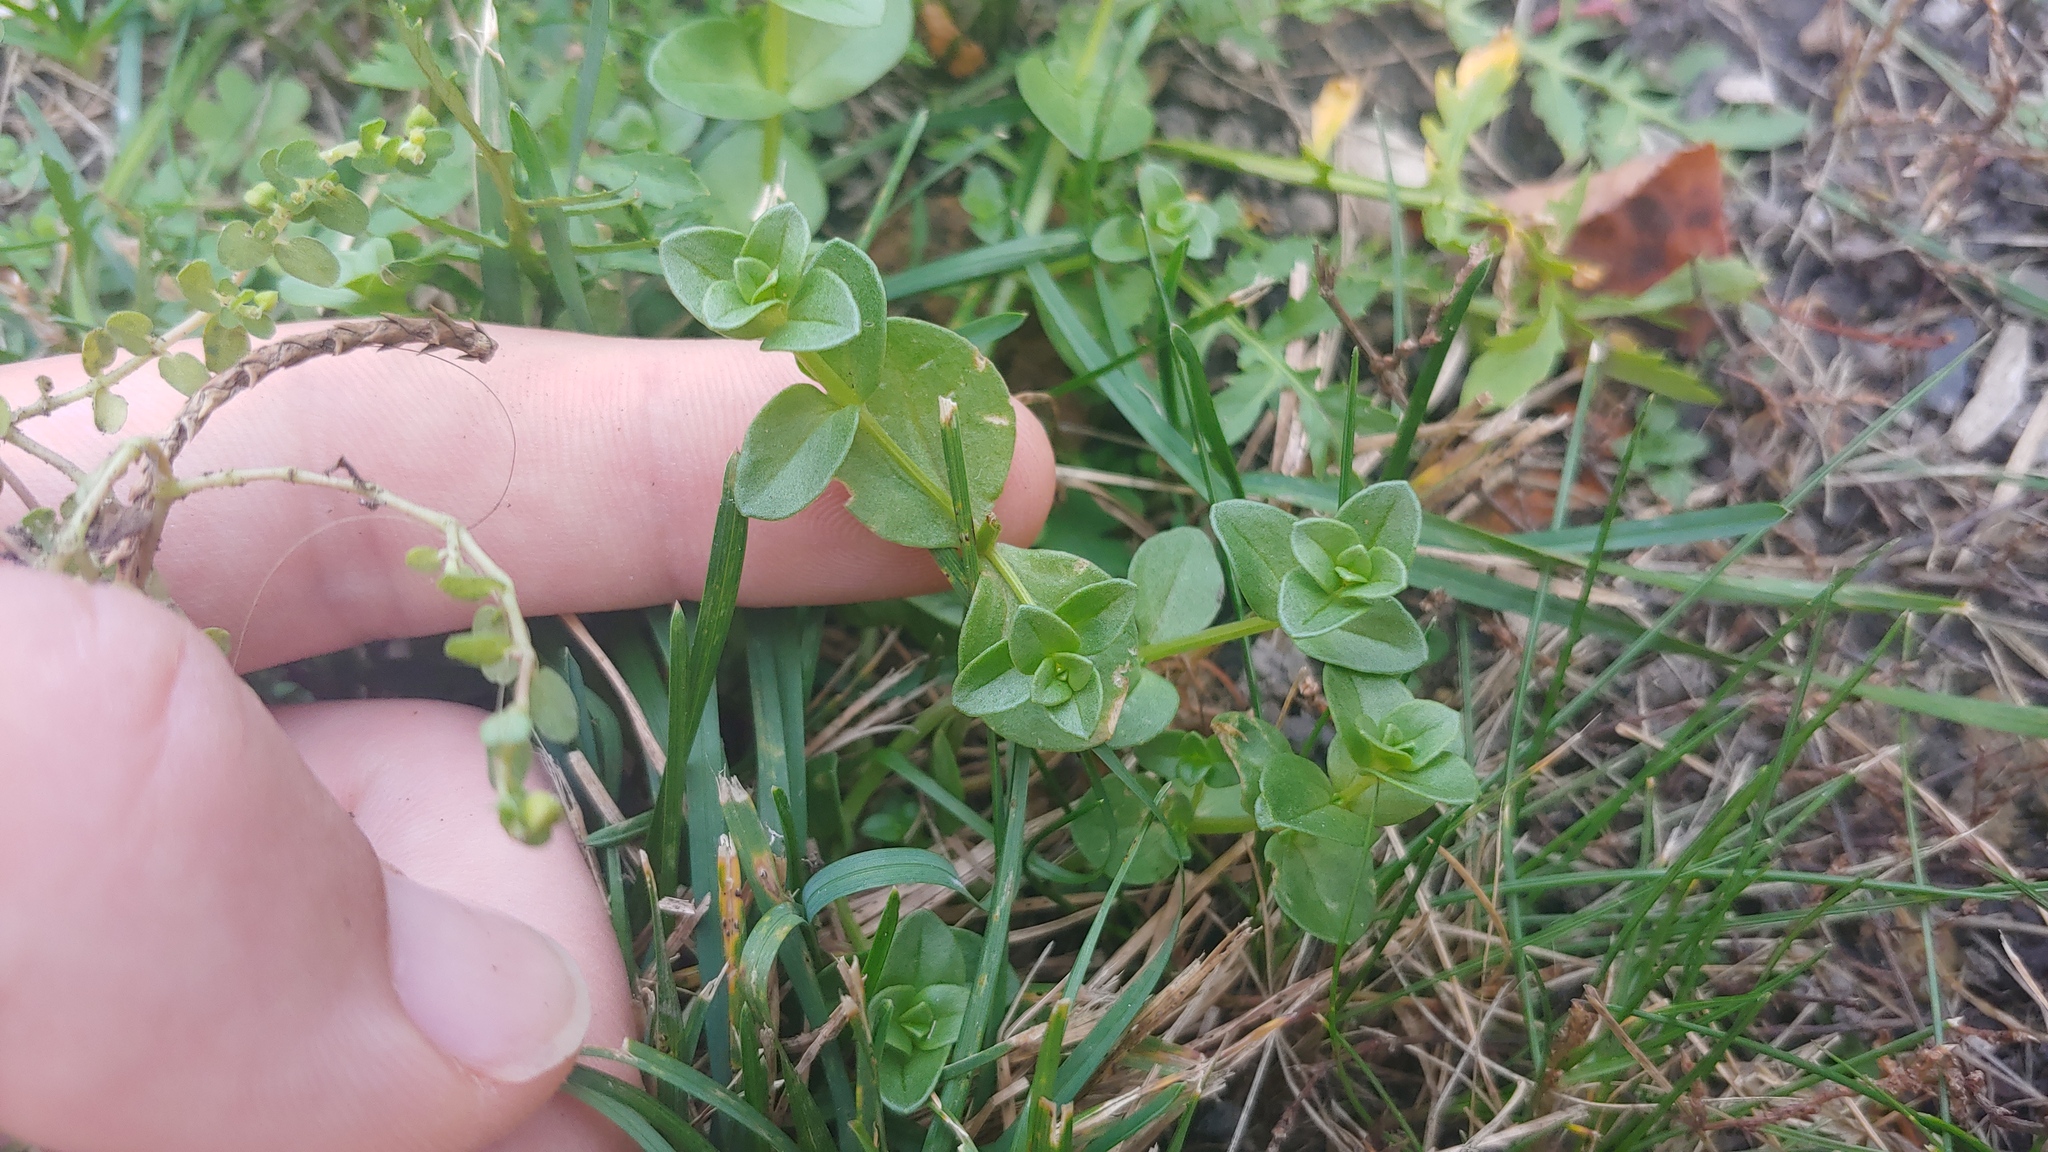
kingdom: Plantae
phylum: Tracheophyta
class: Magnoliopsida
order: Lamiales
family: Plantaginaceae
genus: Veronica
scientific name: Veronica serpyllifolia
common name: Thyme-leaved speedwell
